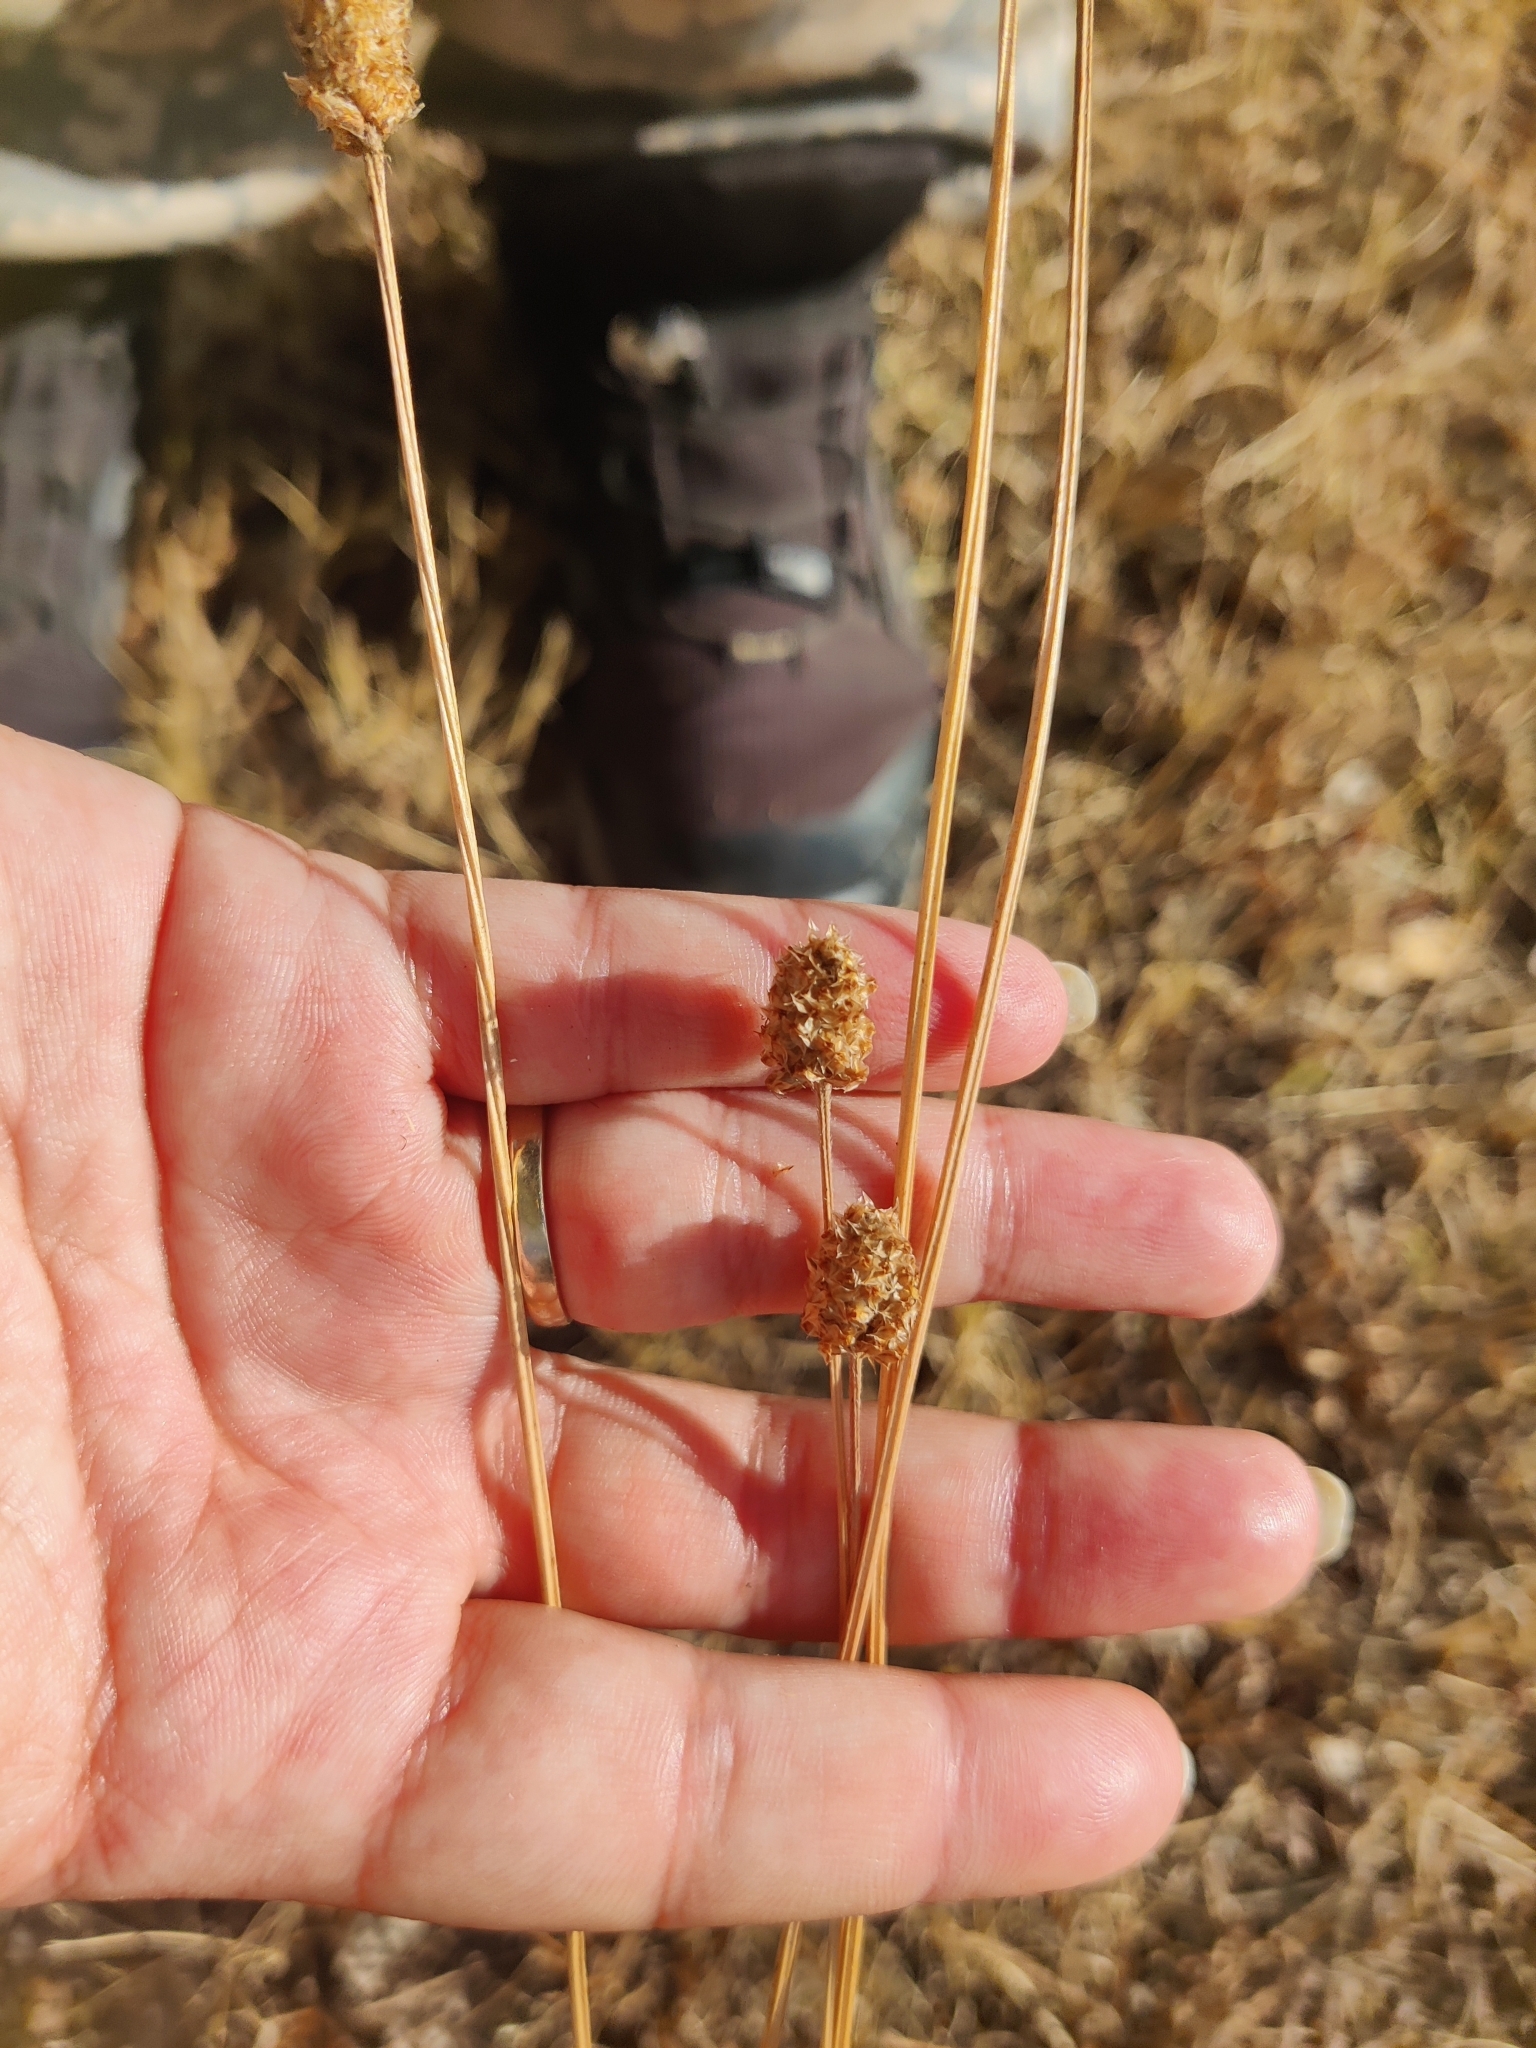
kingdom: Plantae
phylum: Tracheophyta
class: Magnoliopsida
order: Lamiales
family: Plantaginaceae
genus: Plantago
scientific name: Plantago lanceolata
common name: Ribwort plantain
